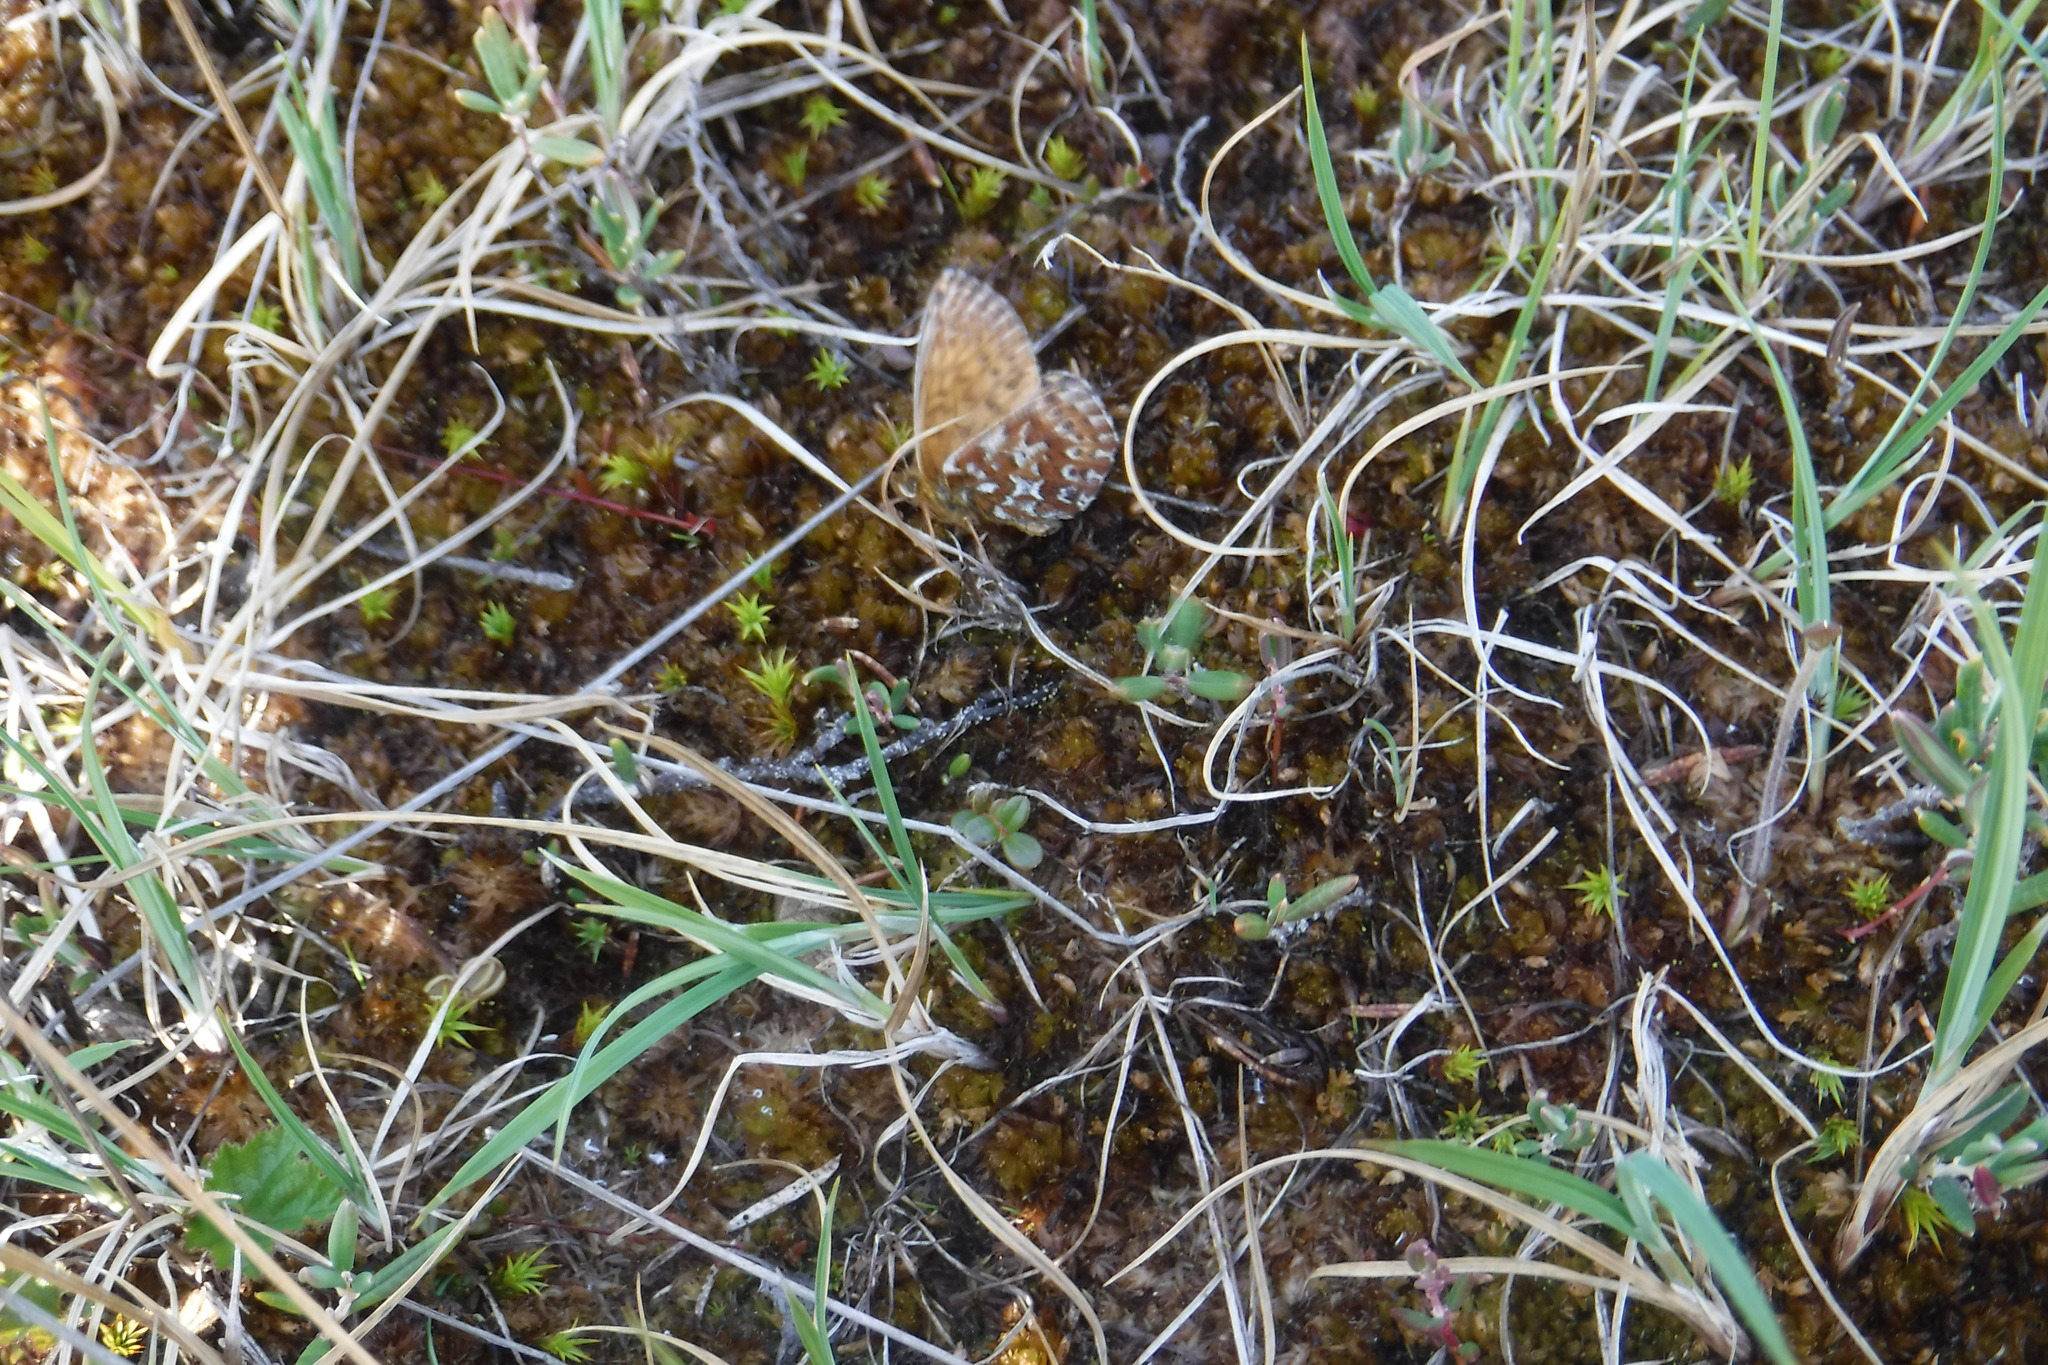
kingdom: Animalia
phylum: Arthropoda
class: Insecta
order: Lepidoptera
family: Nymphalidae
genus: Clossiana
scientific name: Clossiana polaris
